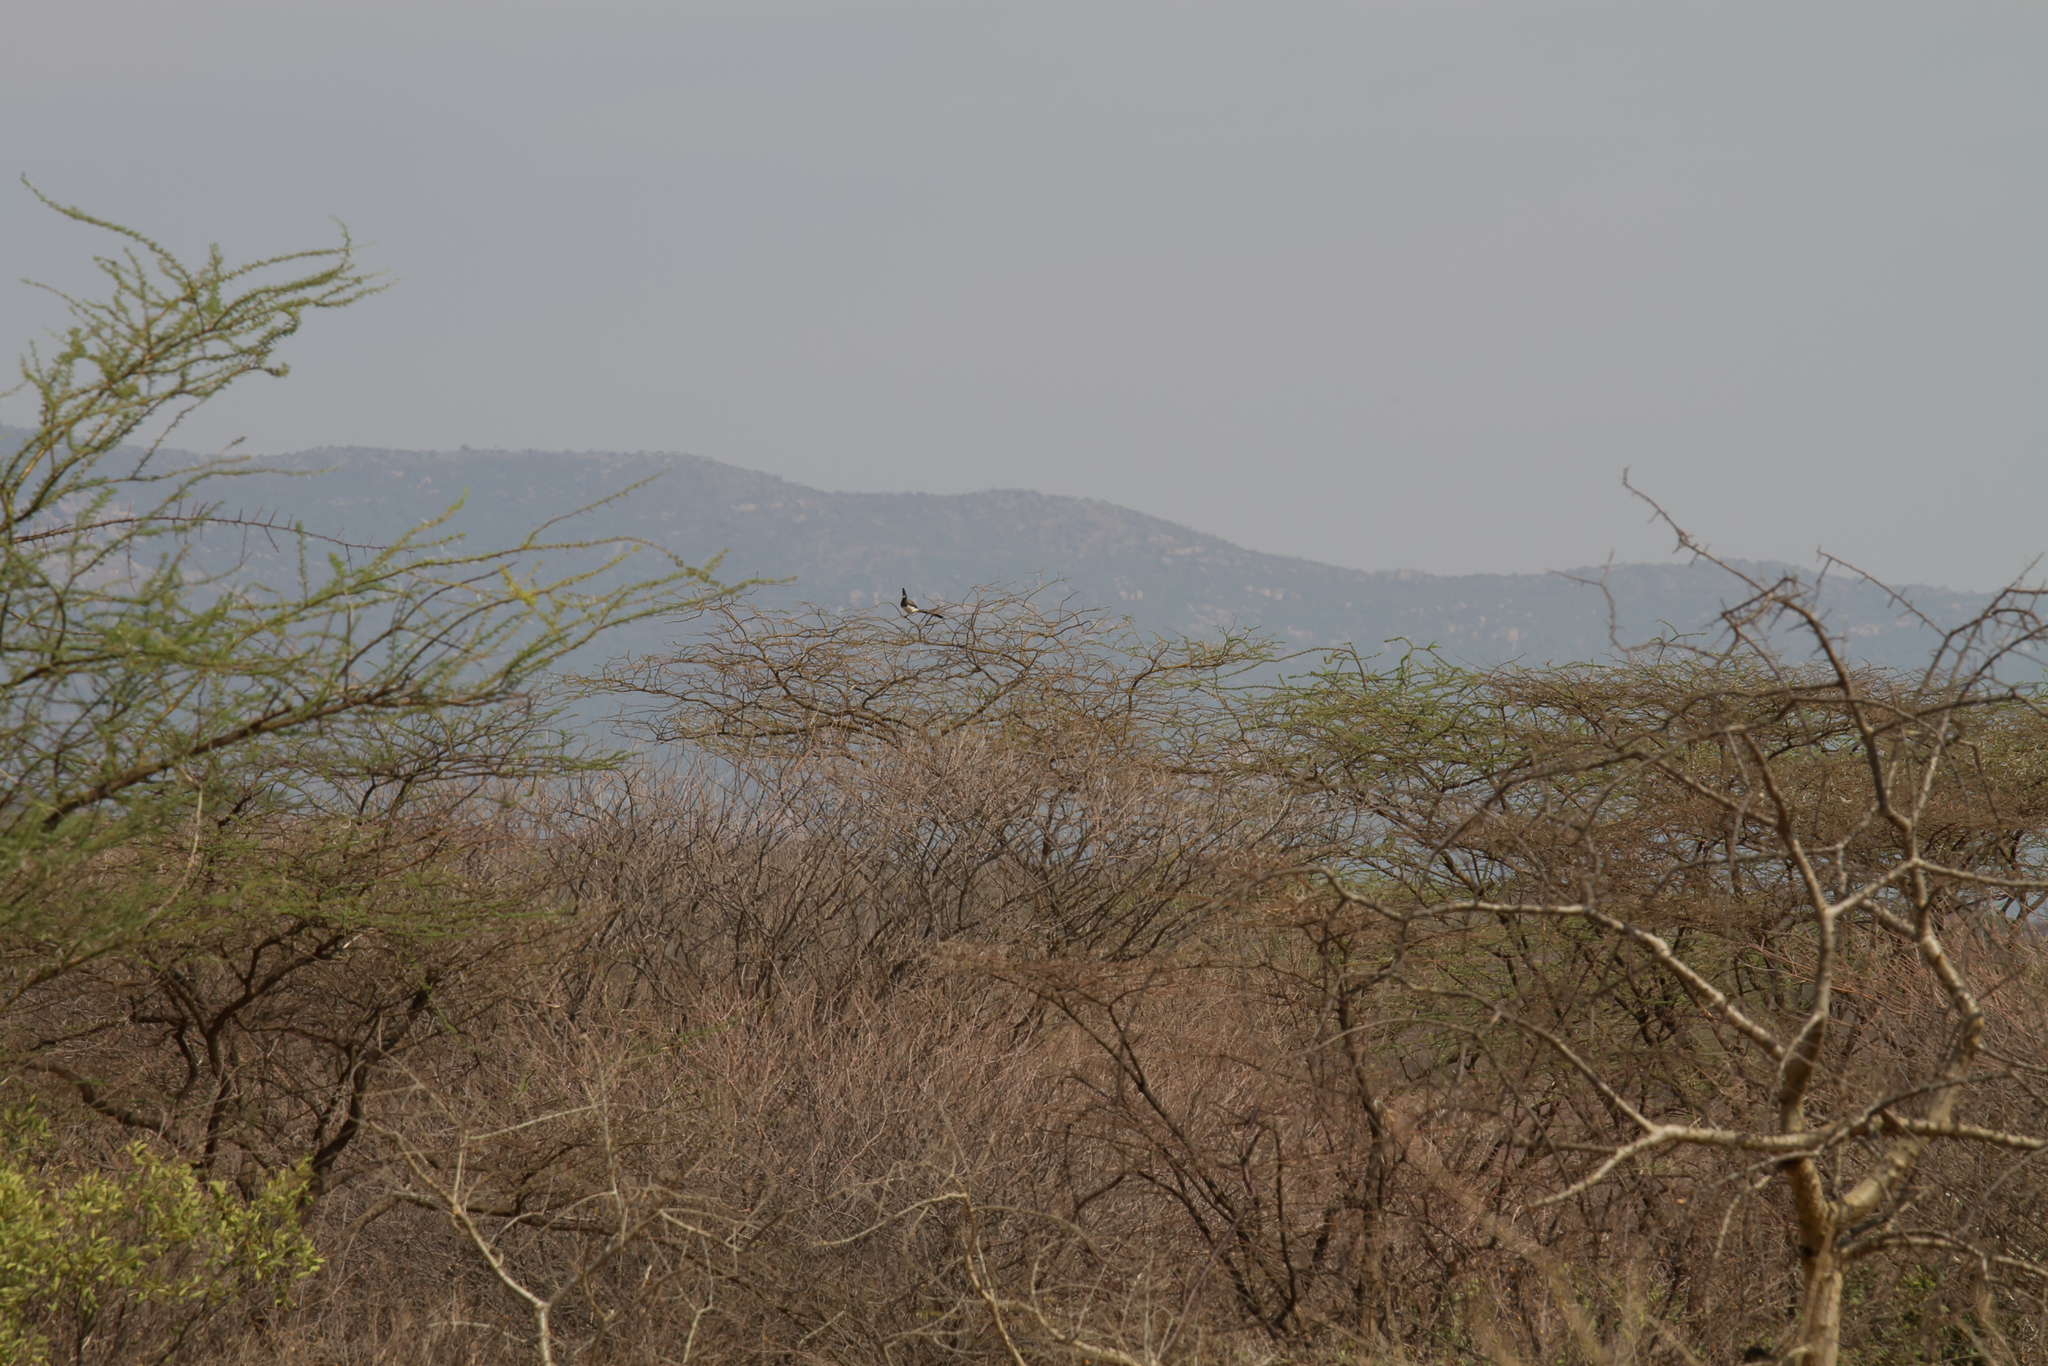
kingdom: Animalia
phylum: Chordata
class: Aves
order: Musophagiformes
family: Musophagidae
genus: Corythaixoides
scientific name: Corythaixoides leucogaster
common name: White-bellied go-away-bird
